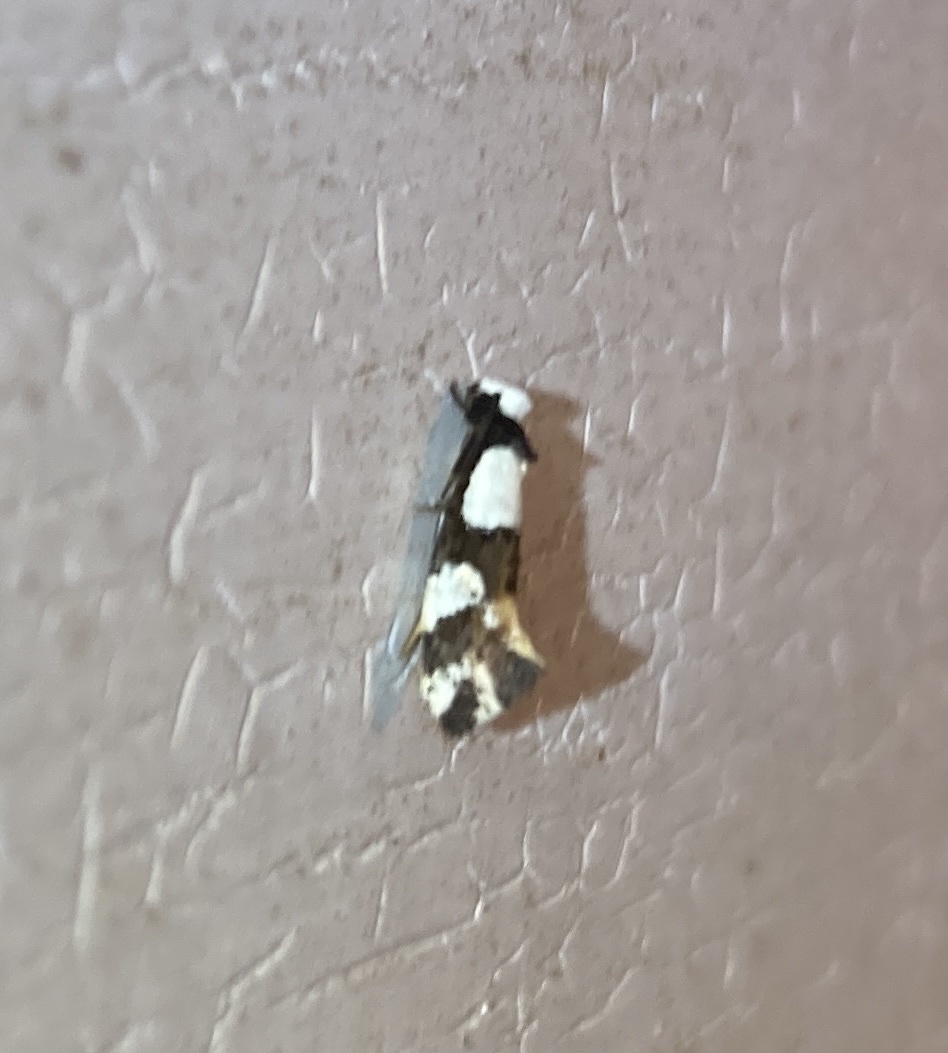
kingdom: Animalia
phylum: Arthropoda
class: Insecta
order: Lepidoptera
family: Tineidae
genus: Monopis
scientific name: Monopis icterogastra
